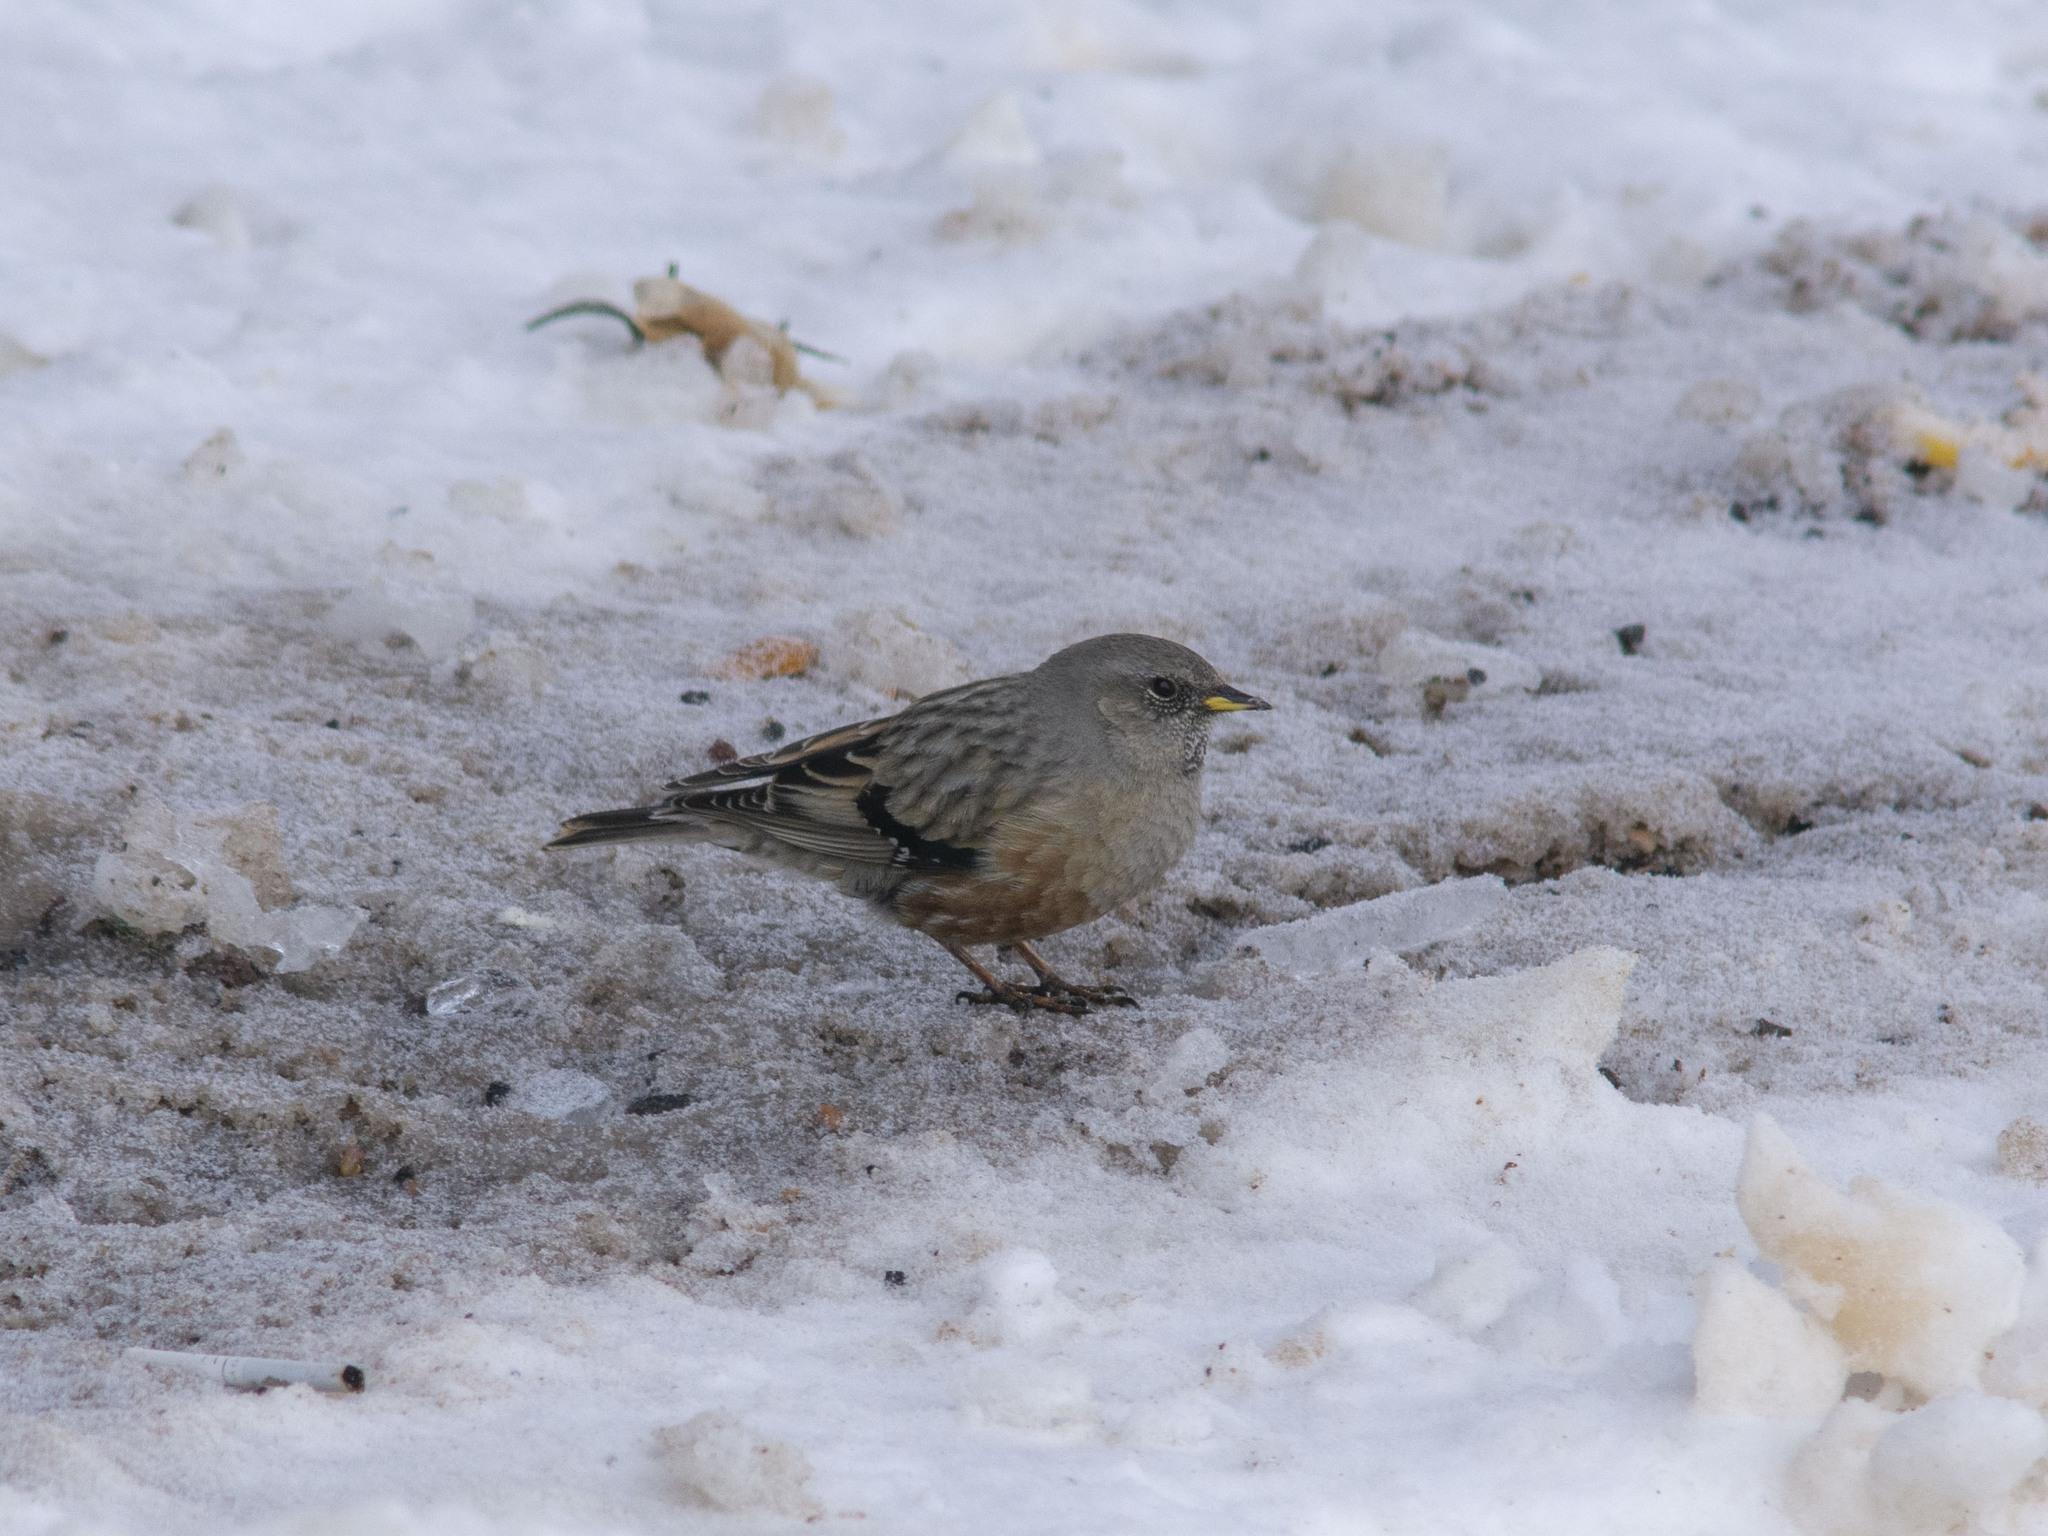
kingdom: Animalia
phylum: Chordata
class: Aves
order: Passeriformes
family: Prunellidae
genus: Prunella
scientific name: Prunella collaris
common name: Alpine accentor
